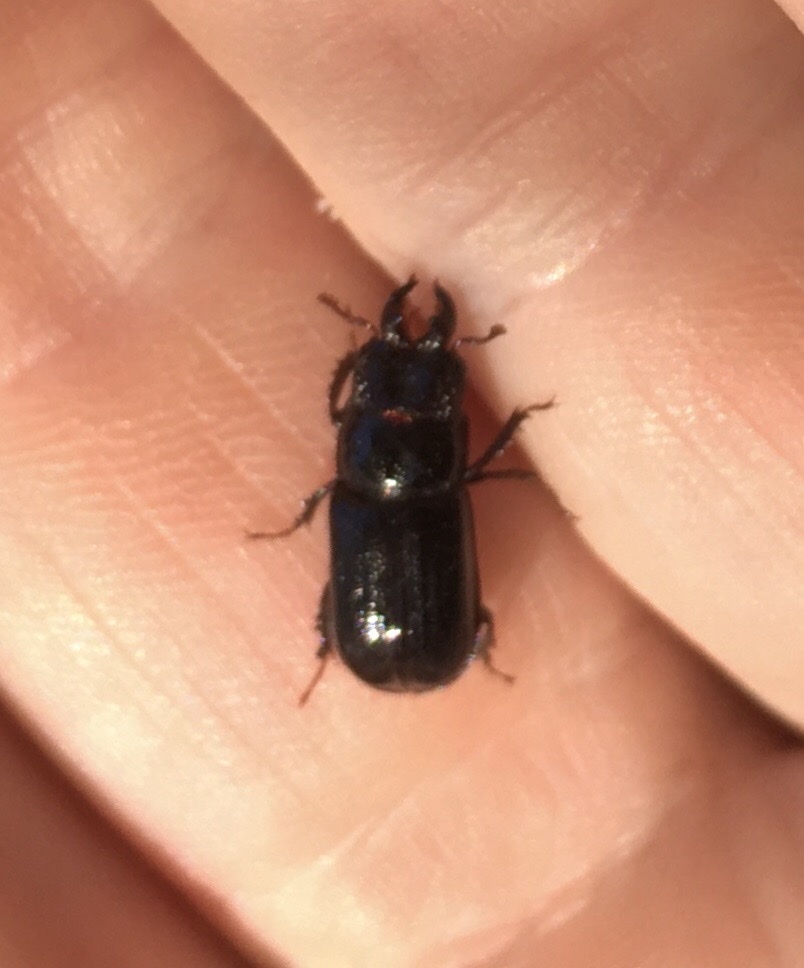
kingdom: Animalia
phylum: Arthropoda
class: Insecta
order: Coleoptera
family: Lucanidae
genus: Ceruchus
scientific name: Ceruchus piceus
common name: Red-rot decay stag beetle
